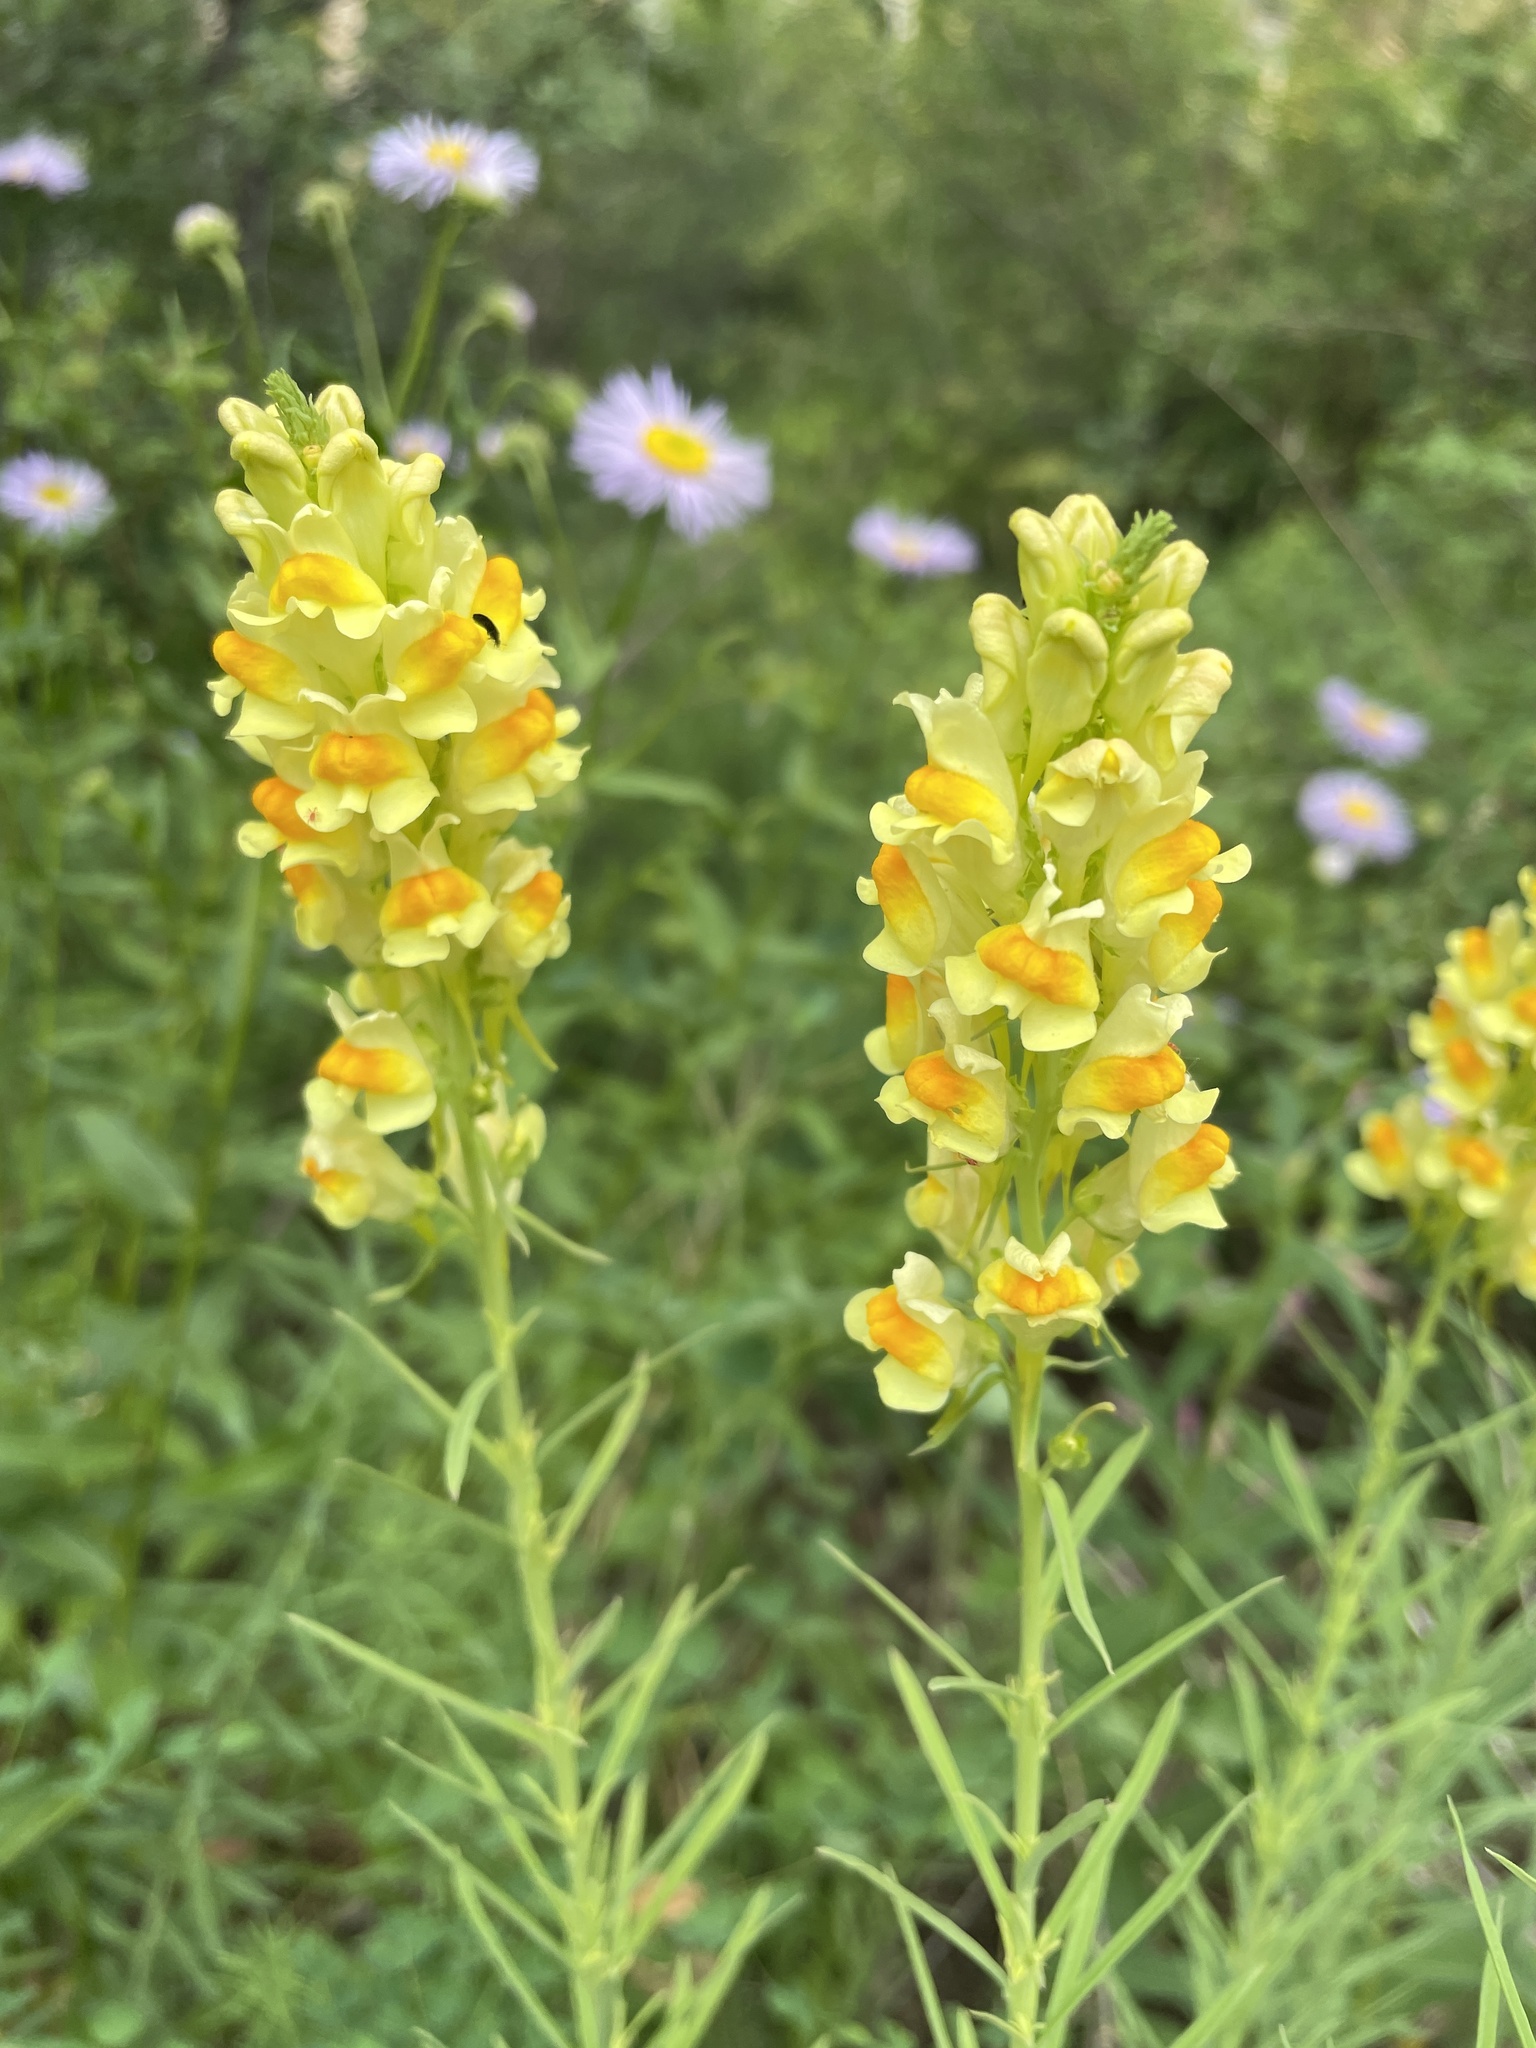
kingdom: Plantae
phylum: Tracheophyta
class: Magnoliopsida
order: Lamiales
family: Plantaginaceae
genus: Linaria
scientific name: Linaria vulgaris
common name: Butter and eggs
